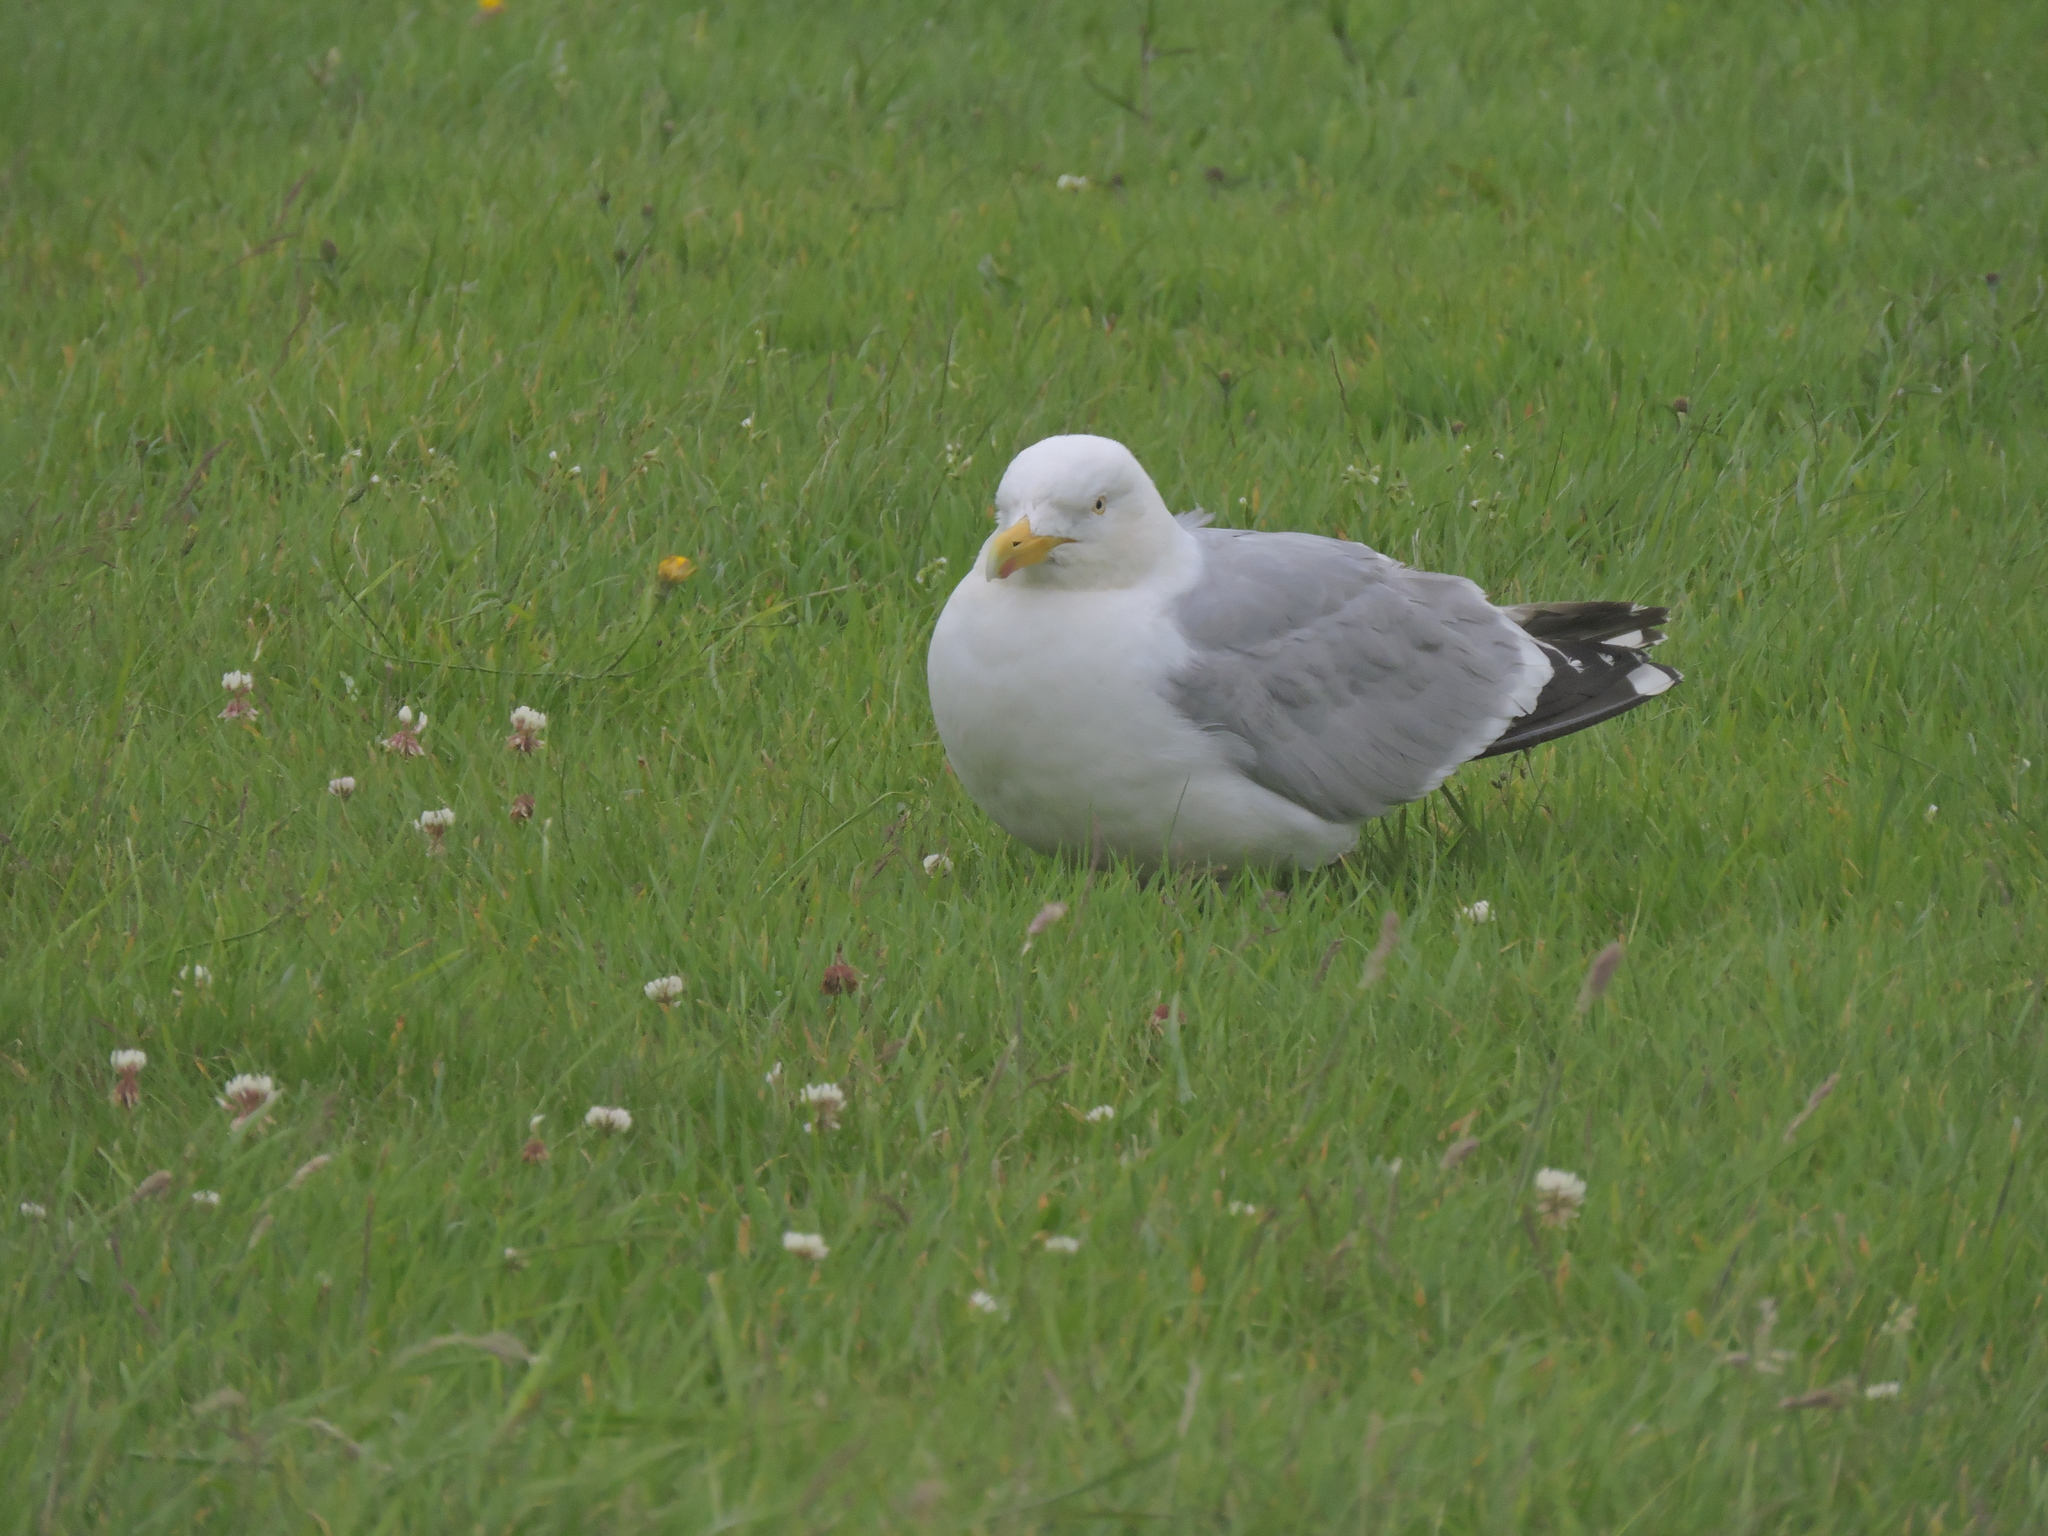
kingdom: Animalia
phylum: Chordata
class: Aves
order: Charadriiformes
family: Laridae
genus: Larus
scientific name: Larus argentatus
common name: Herring gull
